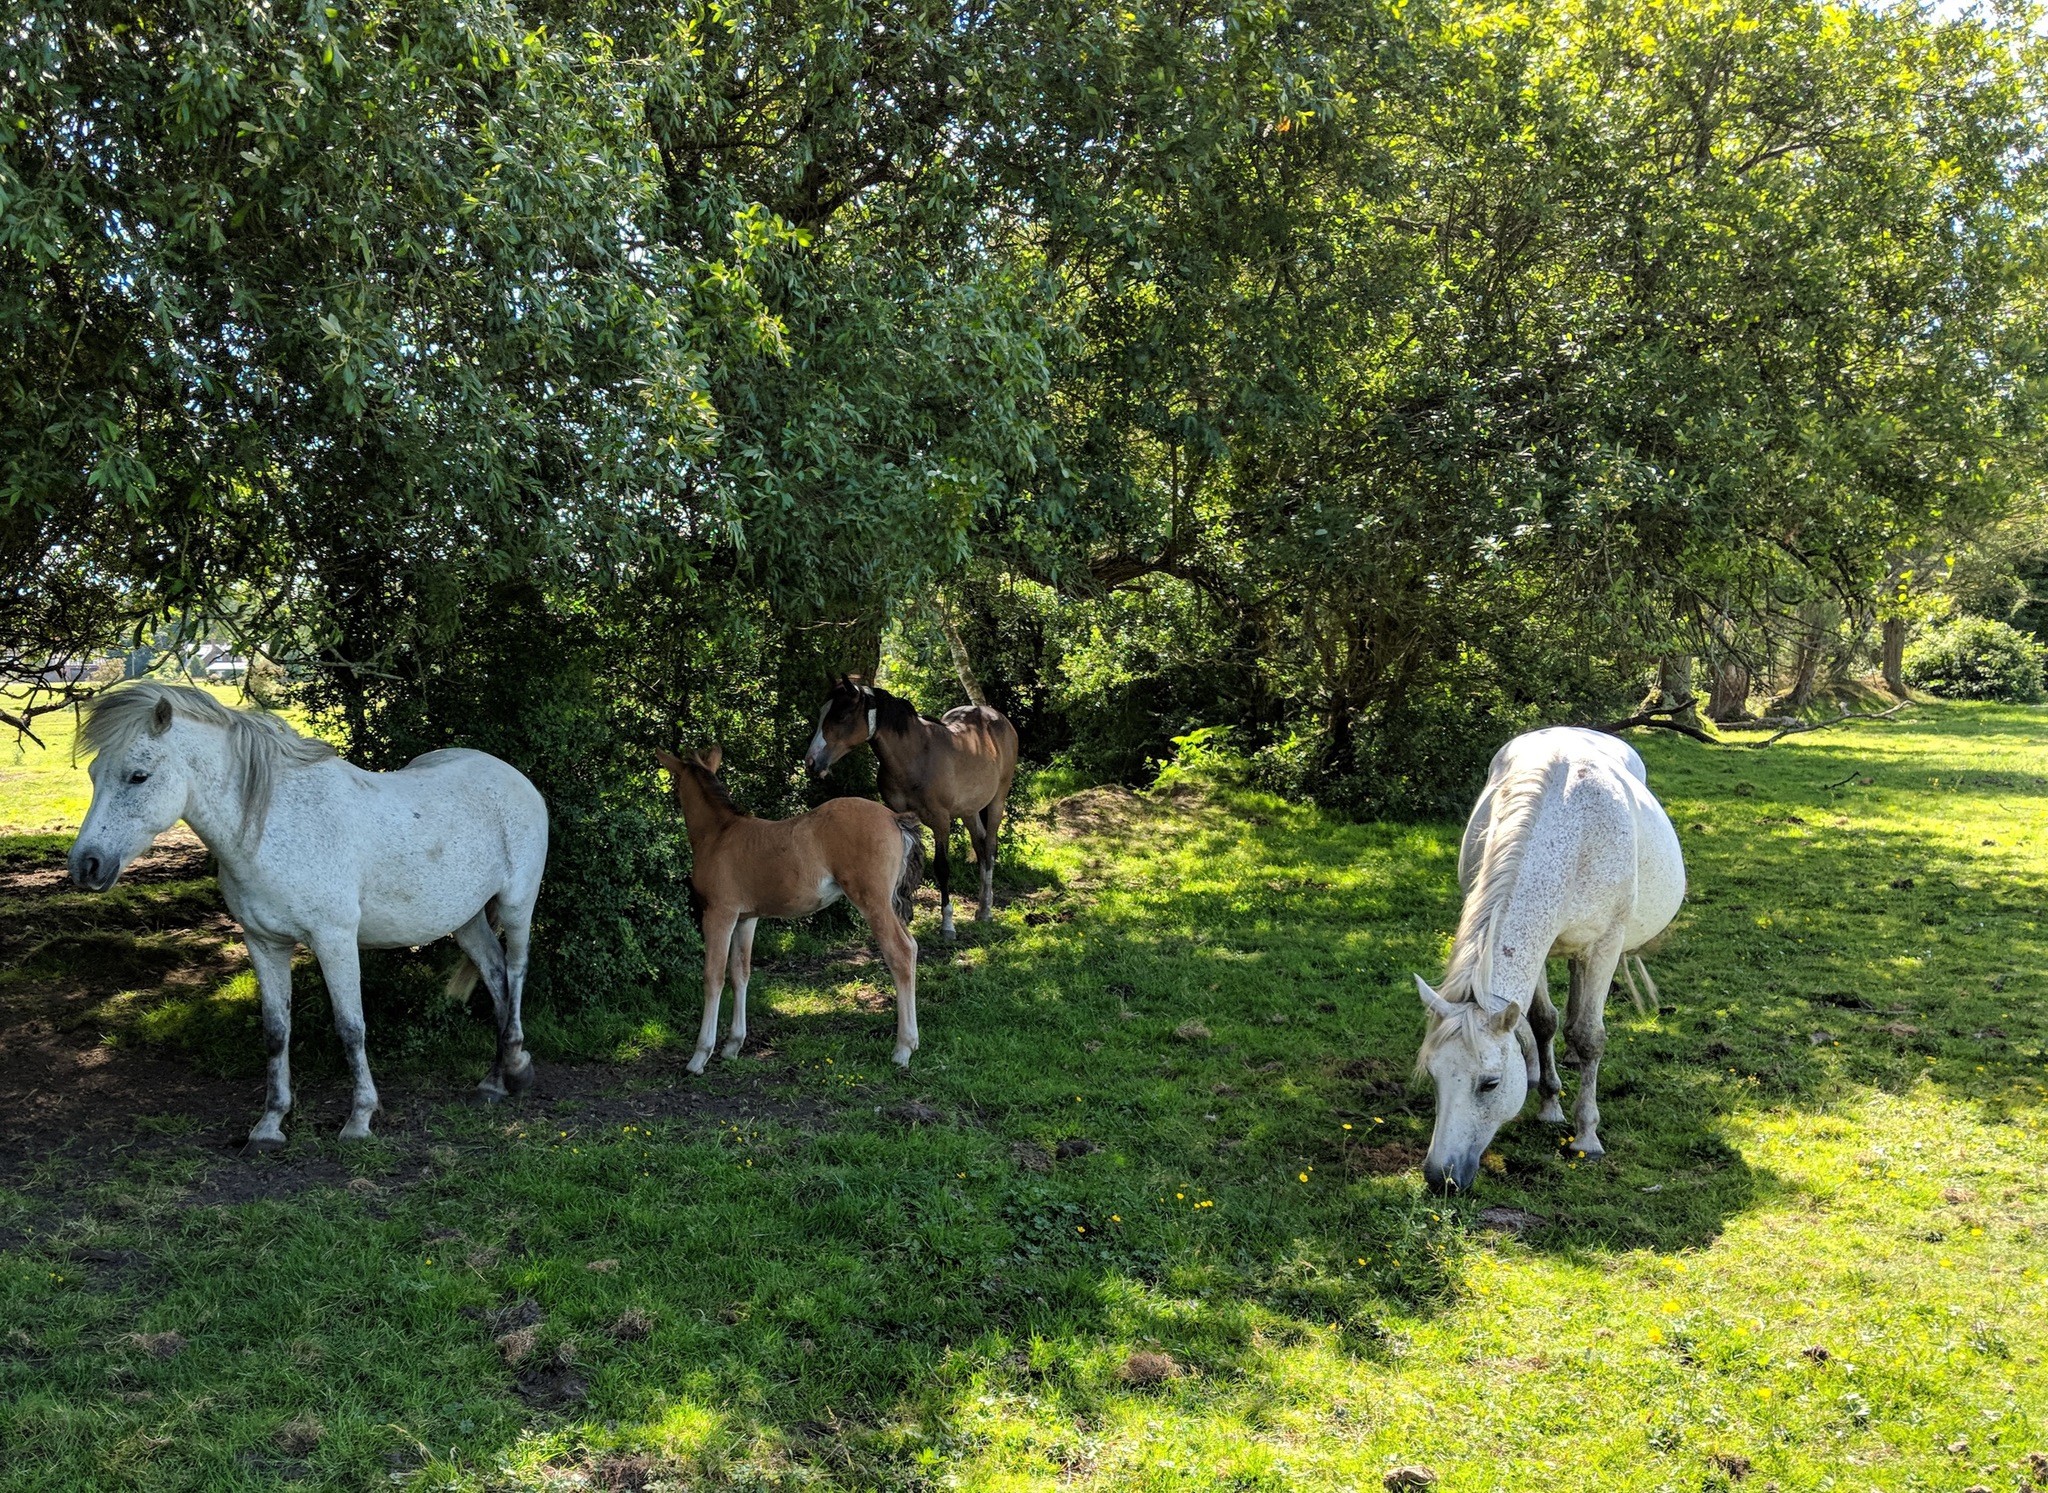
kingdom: Animalia
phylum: Chordata
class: Mammalia
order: Perissodactyla
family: Equidae
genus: Equus
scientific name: Equus caballus
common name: Horse
